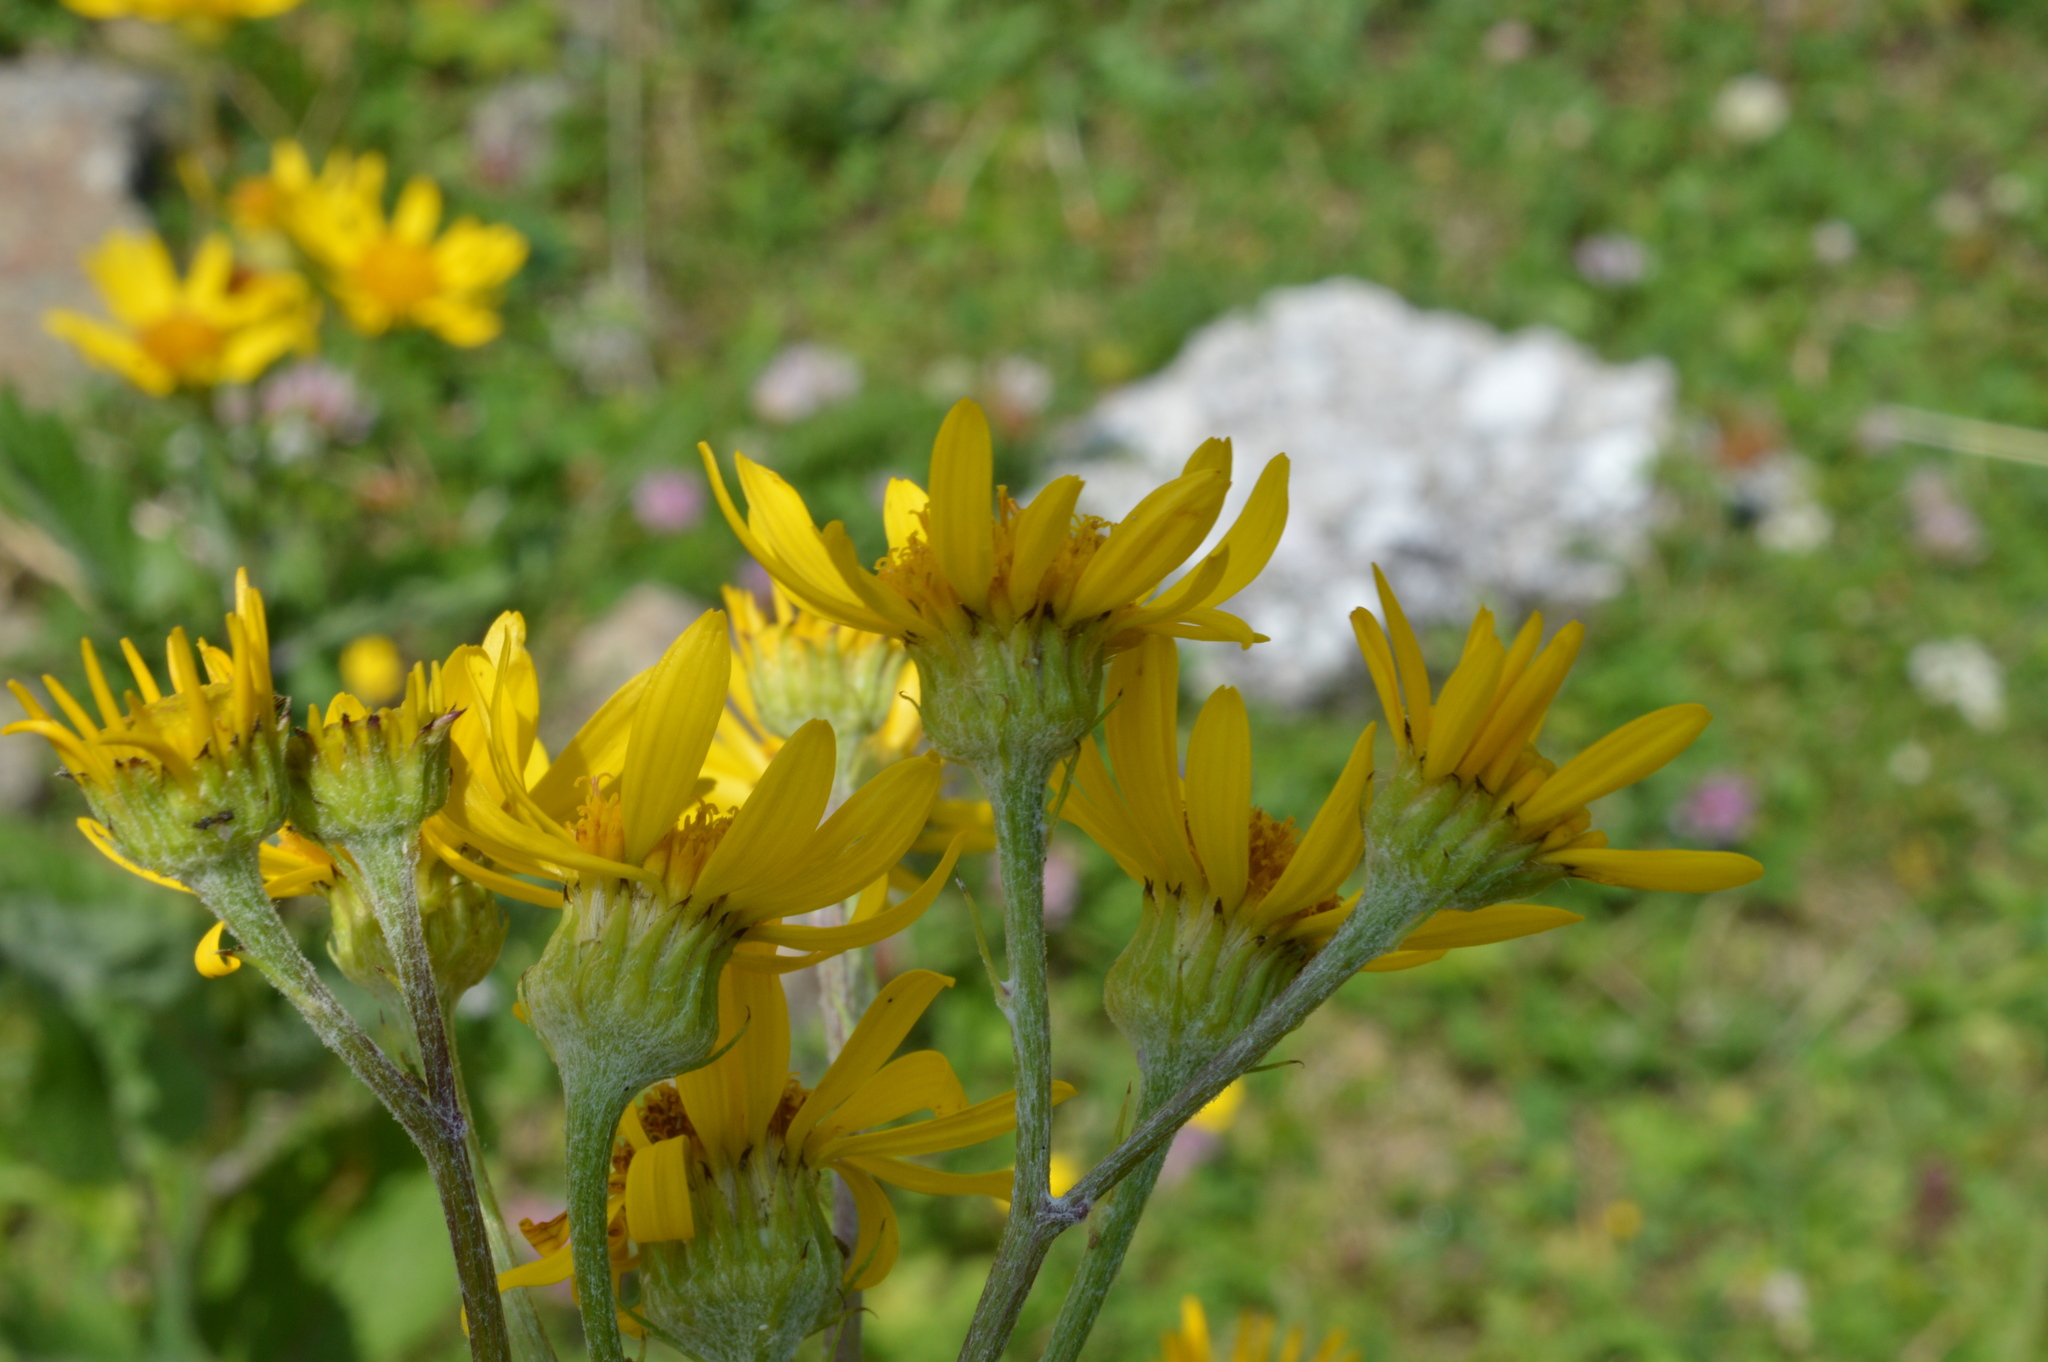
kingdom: Plantae
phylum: Tracheophyta
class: Magnoliopsida
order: Asterales
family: Asteraceae
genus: Jacobaea
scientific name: Jacobaea alpina
